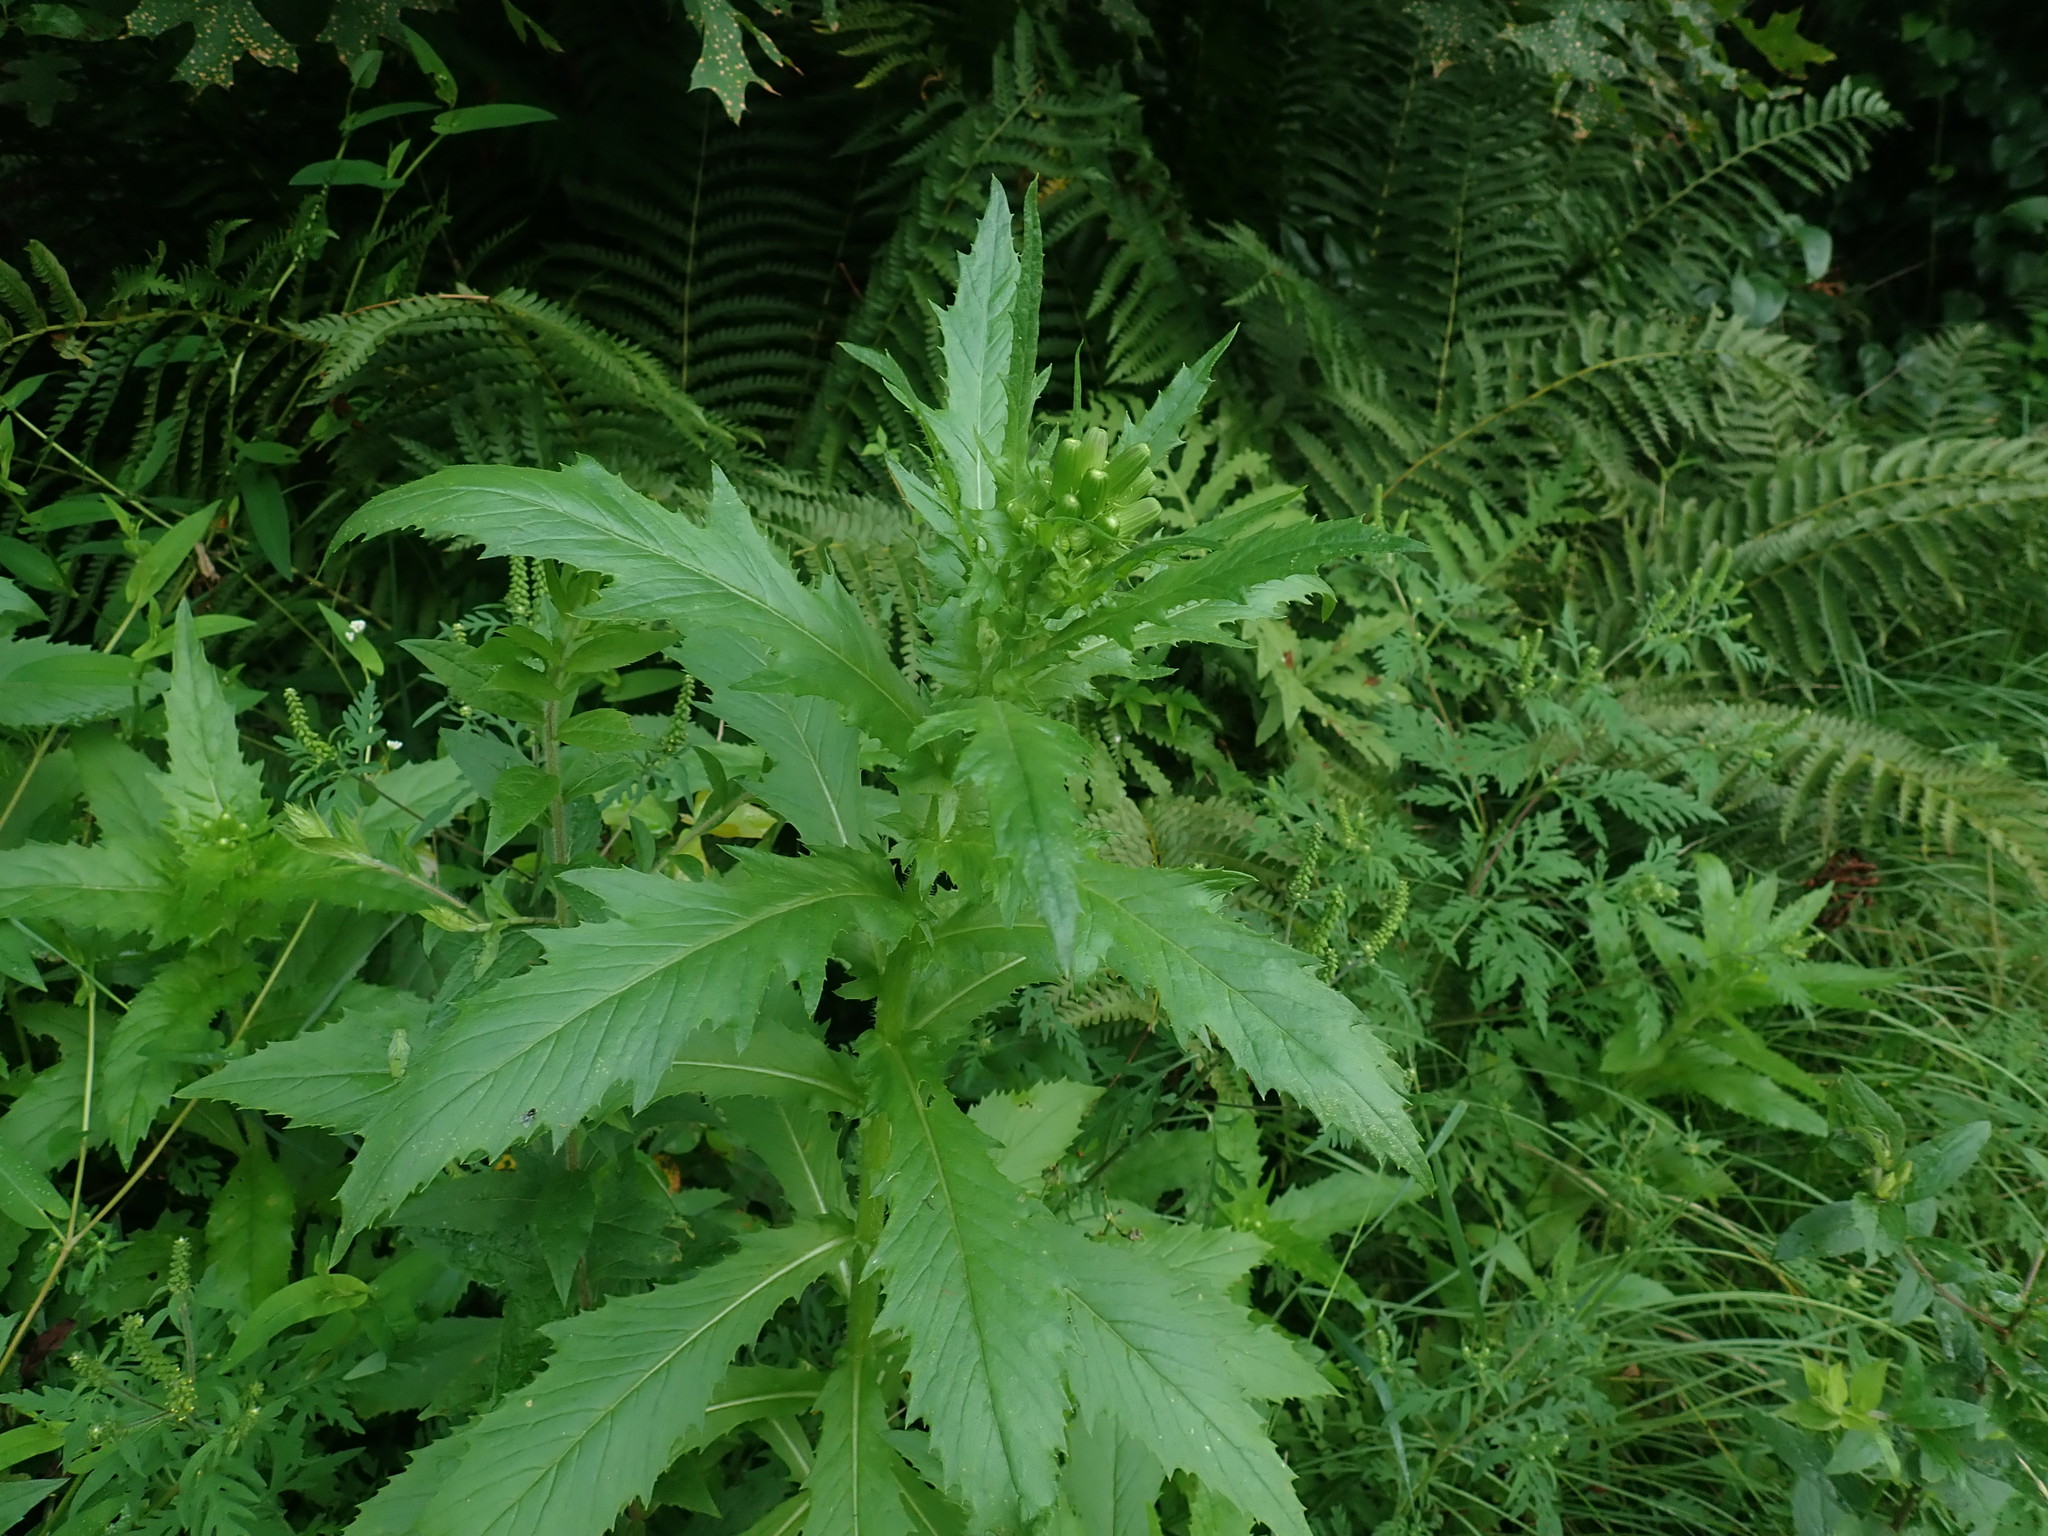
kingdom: Plantae
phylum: Tracheophyta
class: Magnoliopsida
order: Asterales
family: Asteraceae
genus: Erechtites
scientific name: Erechtites hieraciifolius
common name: American burnweed
